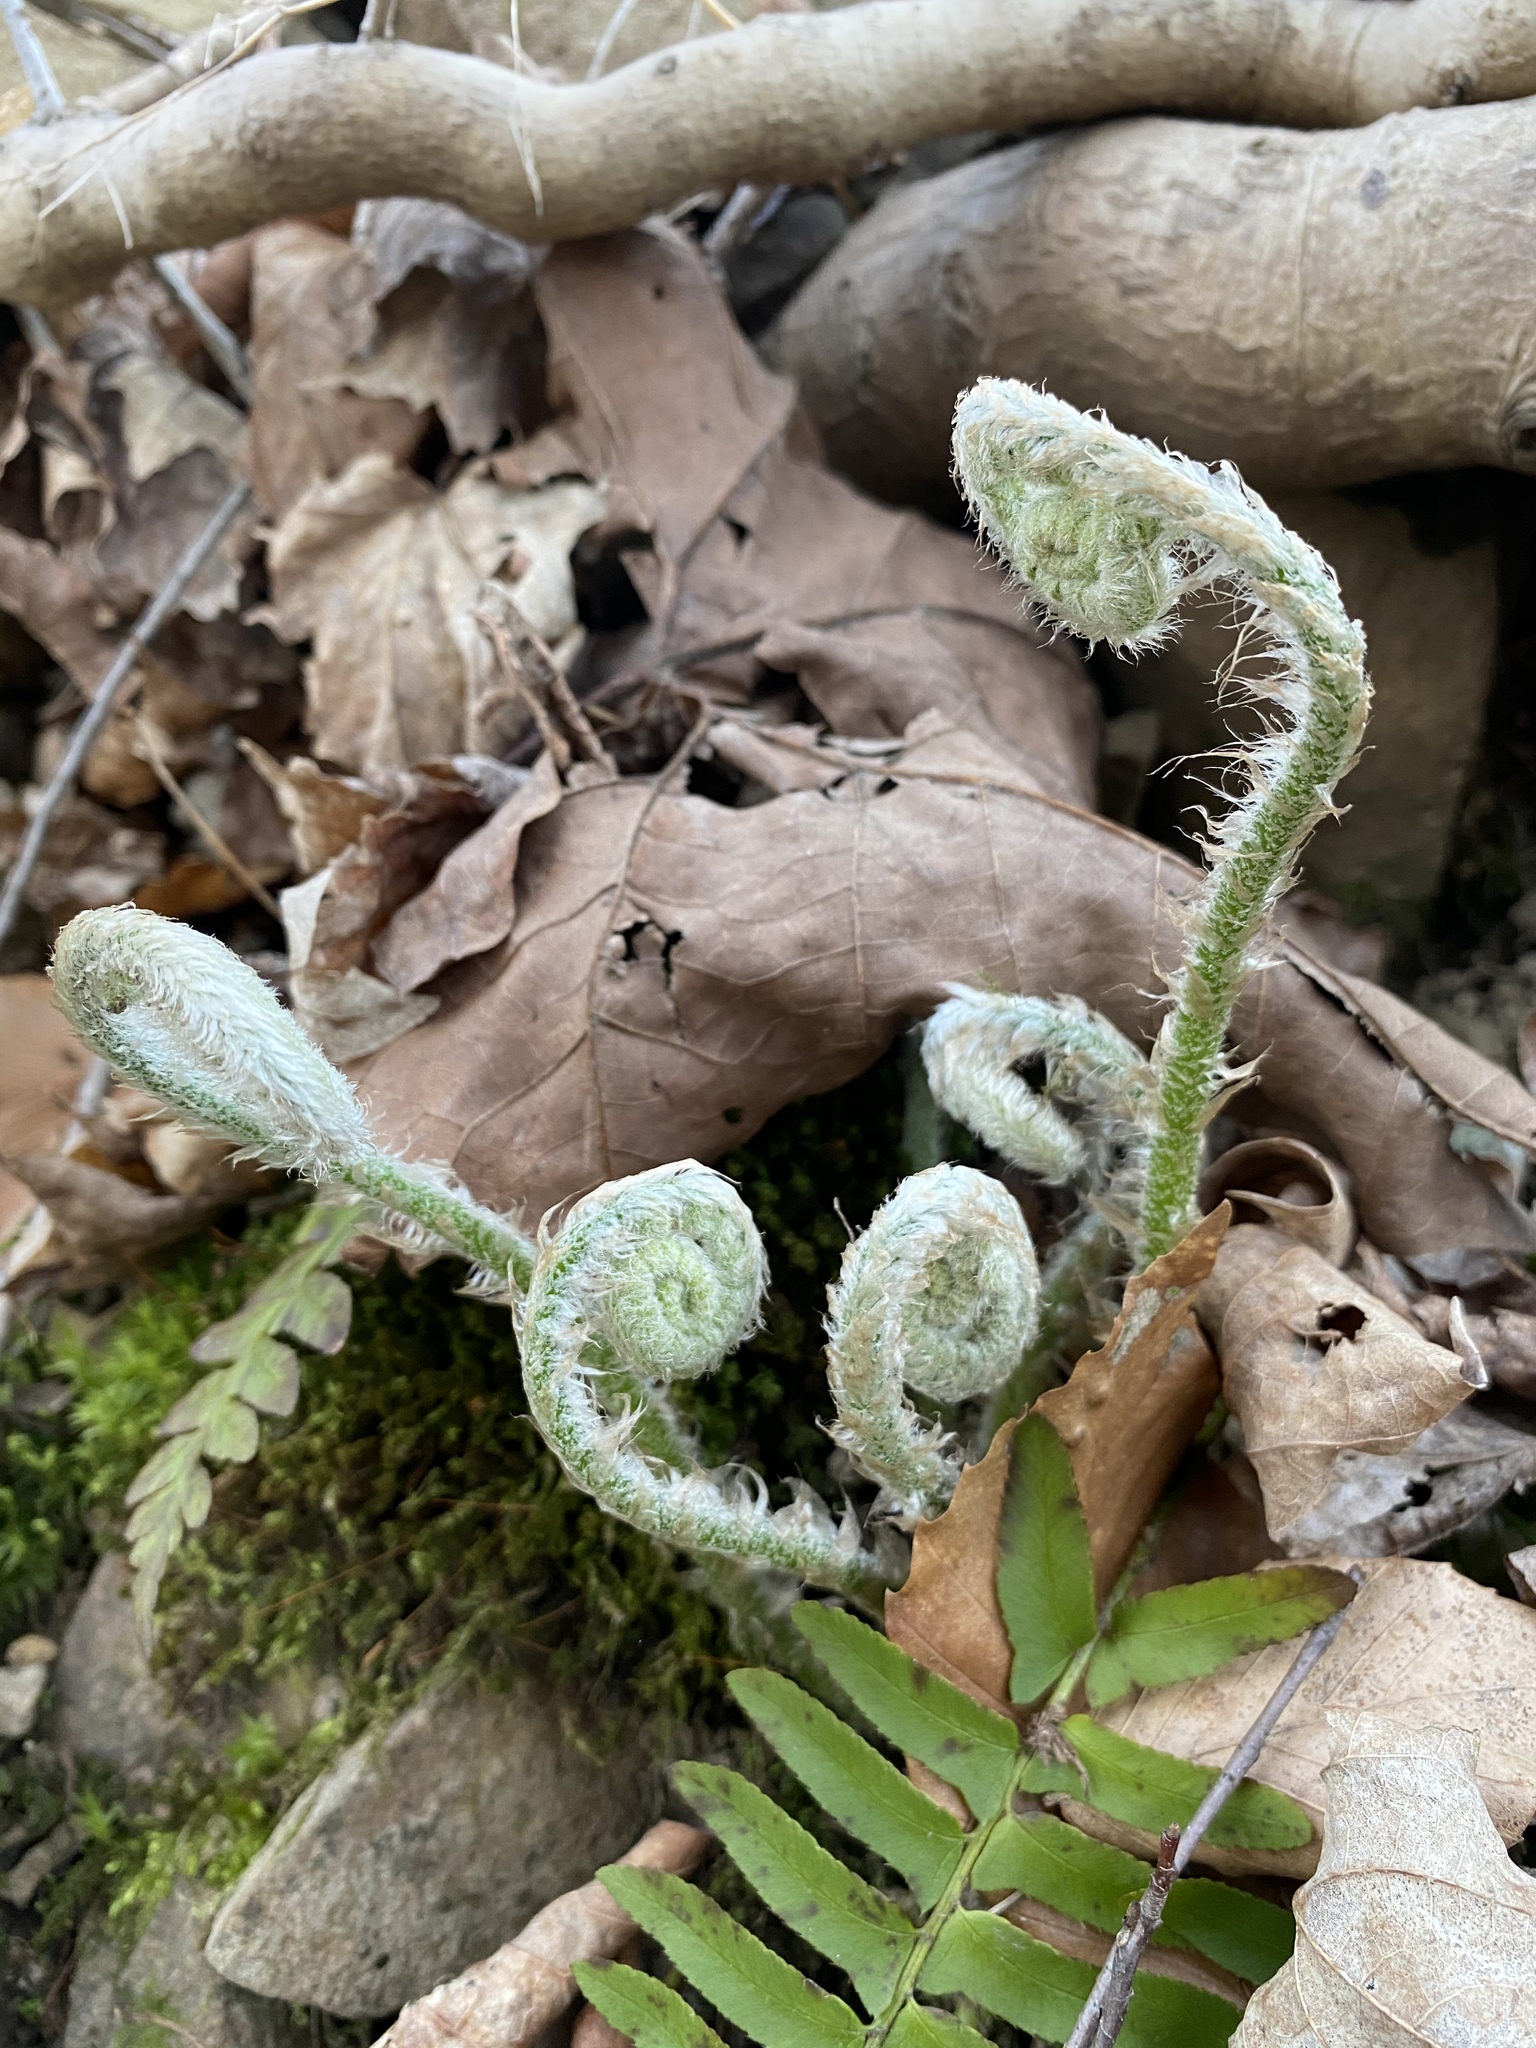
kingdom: Plantae
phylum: Tracheophyta
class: Polypodiopsida
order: Polypodiales
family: Dryopteridaceae
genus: Polystichum
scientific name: Polystichum acrostichoides
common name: Christmas fern
